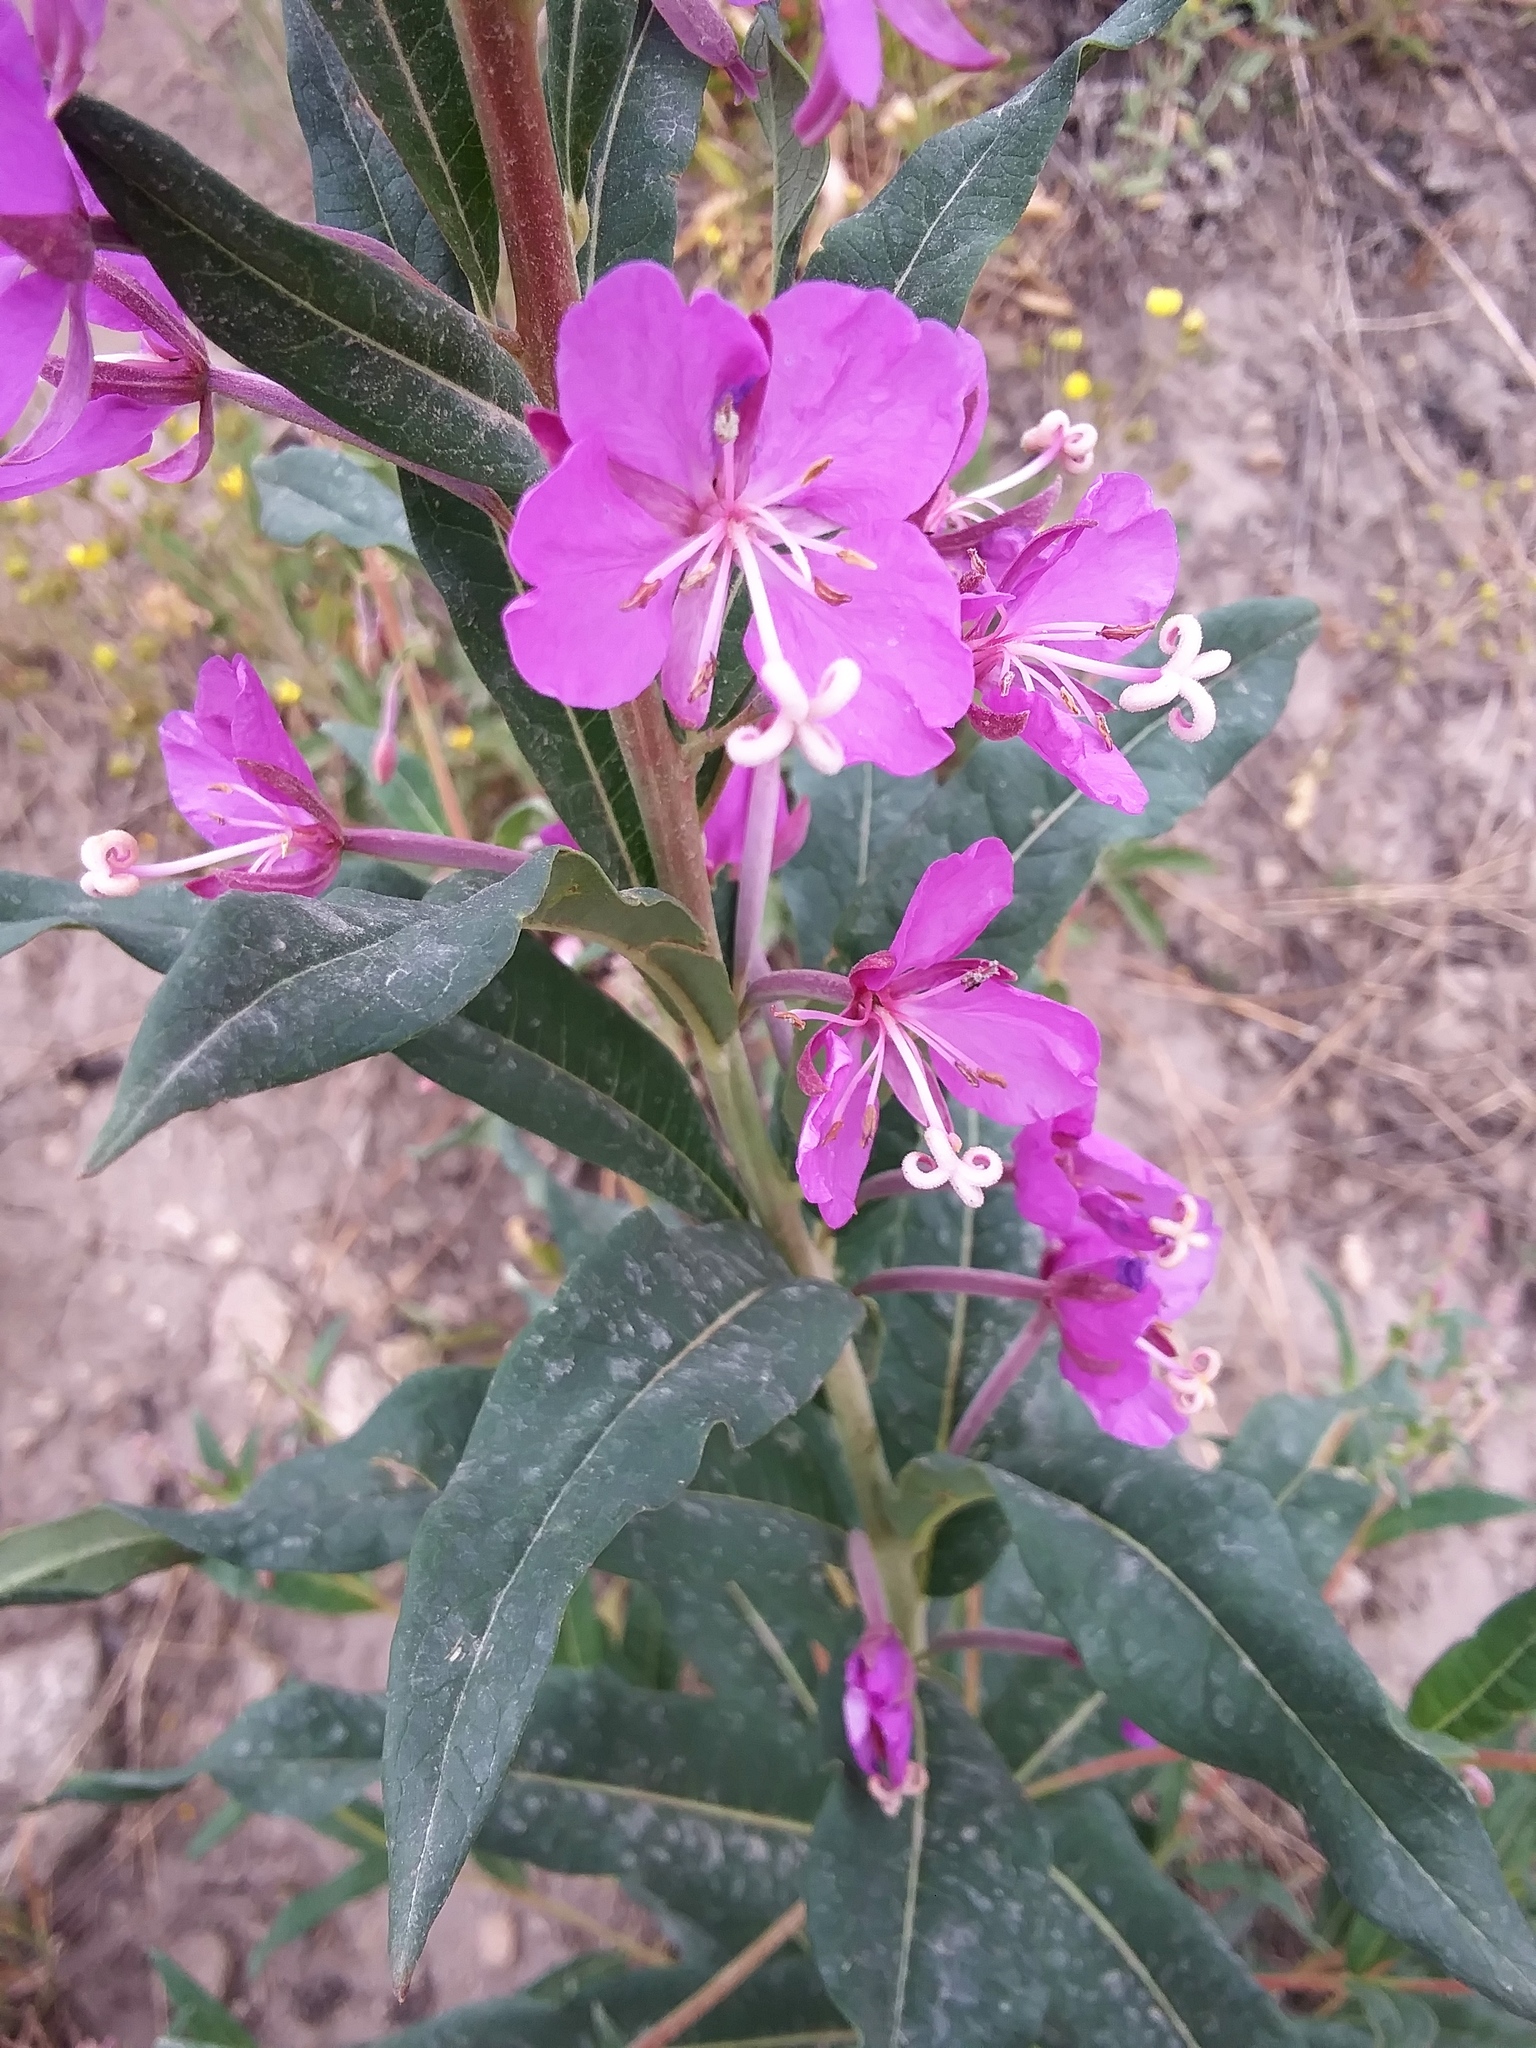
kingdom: Plantae
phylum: Tracheophyta
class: Magnoliopsida
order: Myrtales
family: Onagraceae
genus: Chamaenerion
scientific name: Chamaenerion angustifolium
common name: Fireweed
